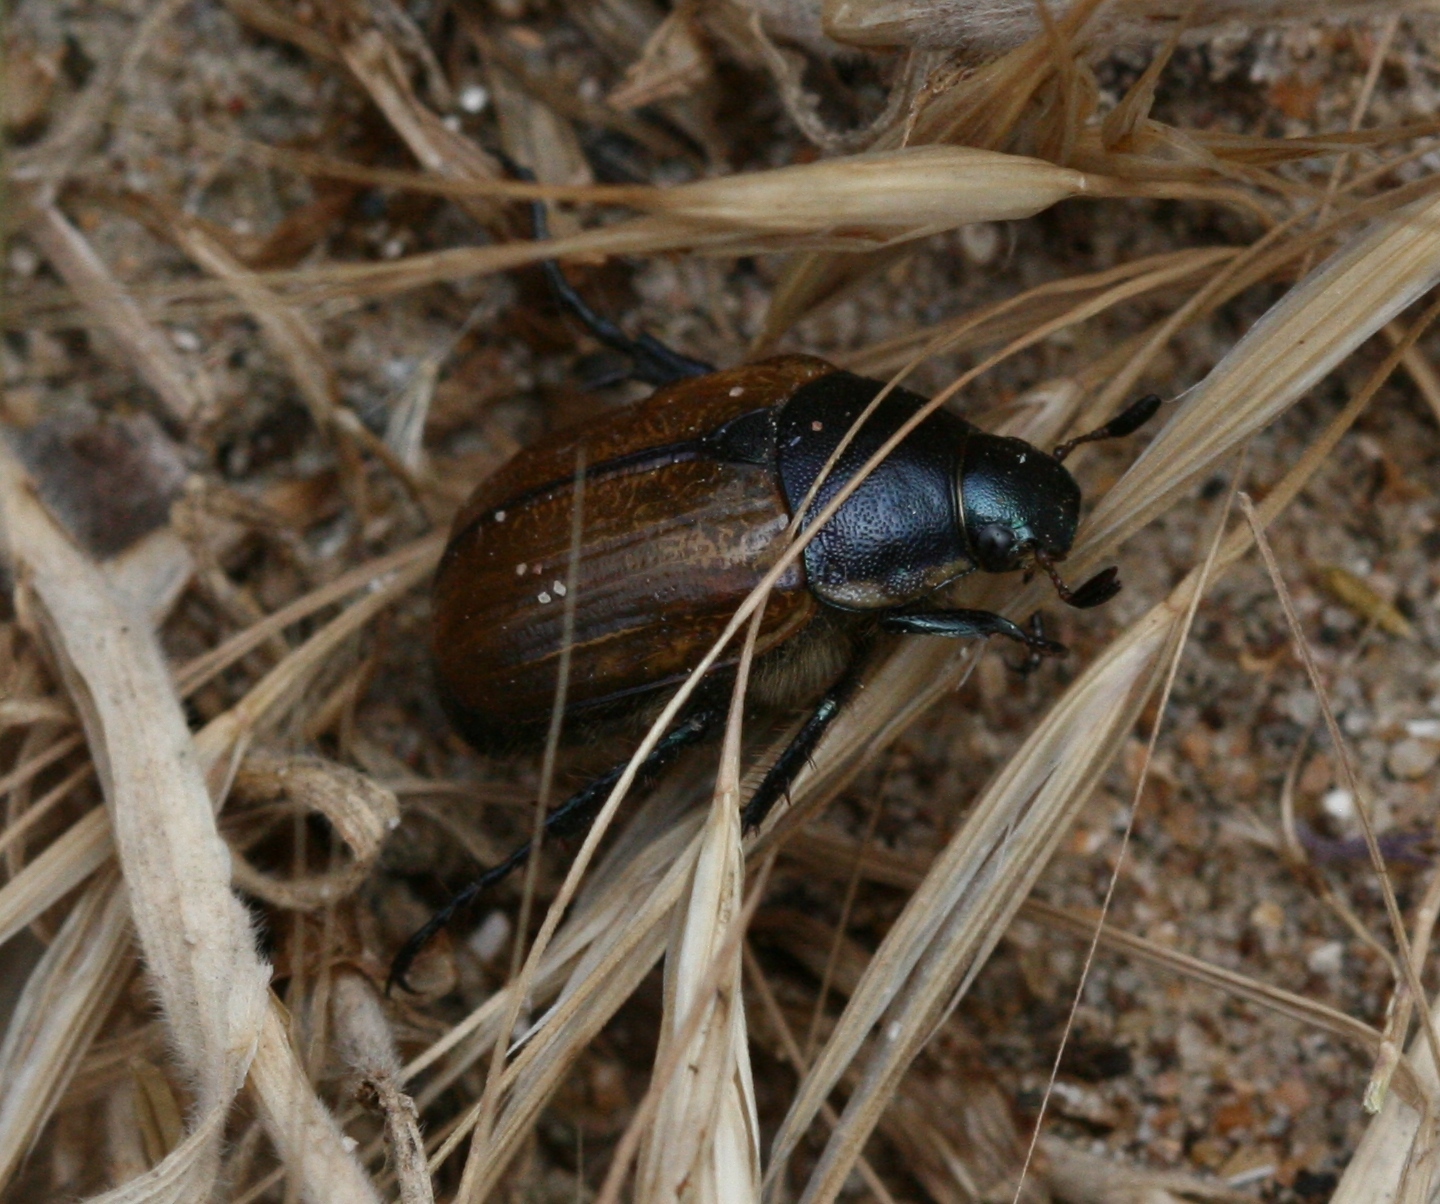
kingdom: Animalia
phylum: Arthropoda
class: Insecta
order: Coleoptera
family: Scarabaeidae
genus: Anomala
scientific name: Anomala dubia
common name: Dune chafer
